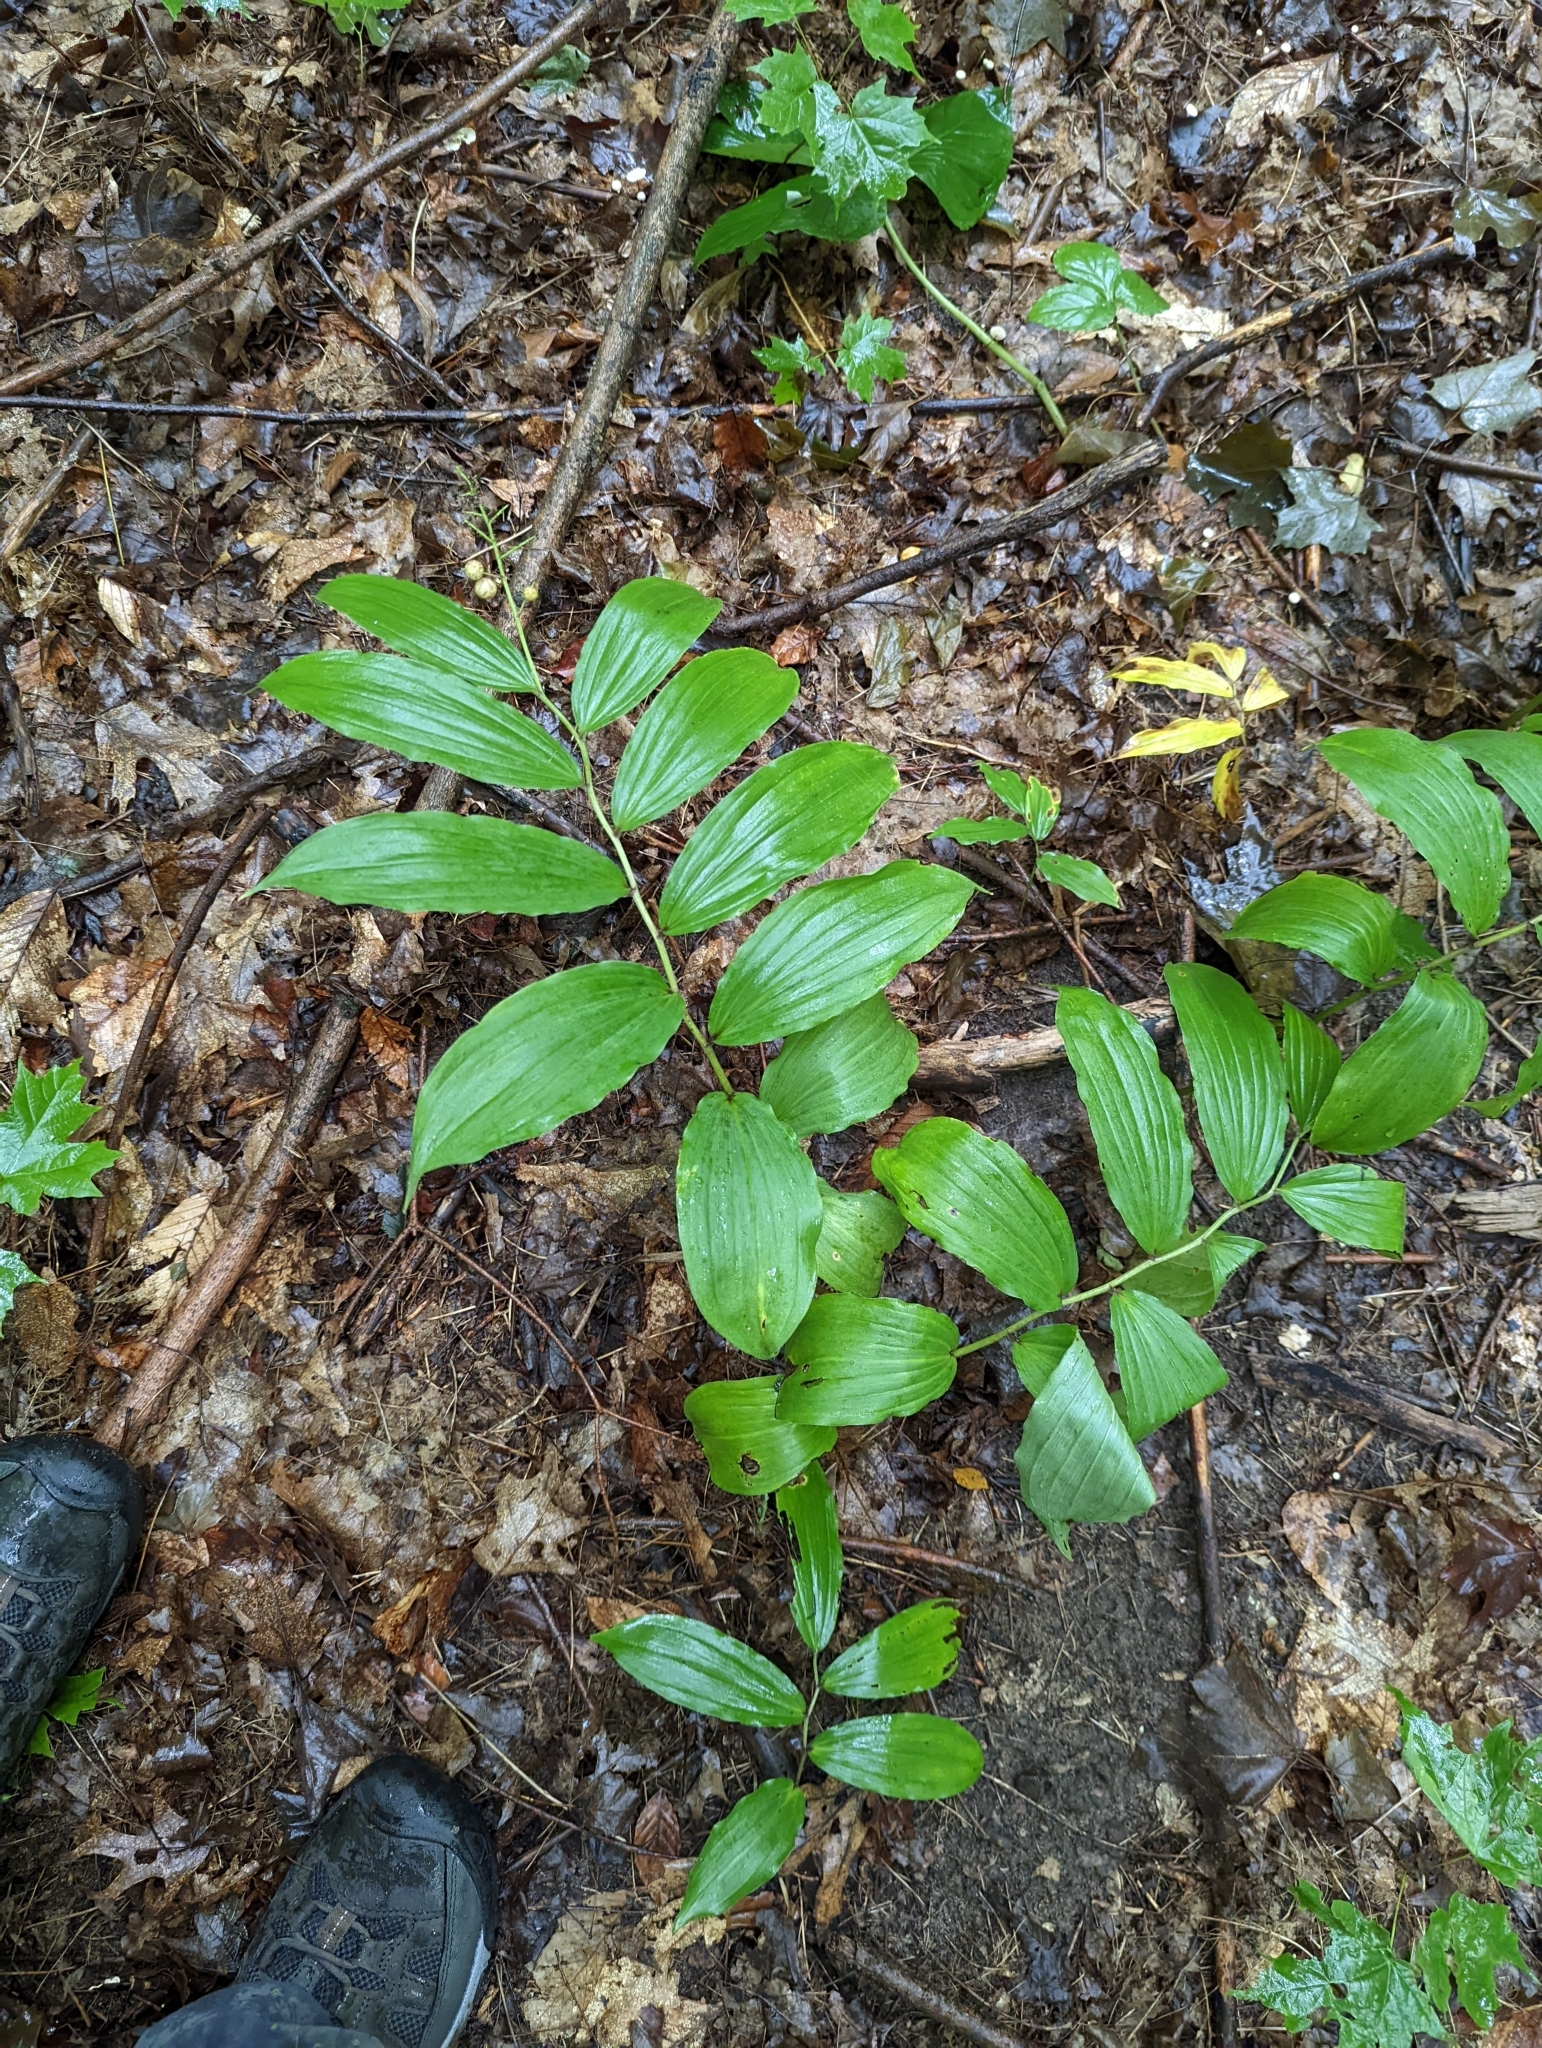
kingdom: Plantae
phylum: Tracheophyta
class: Liliopsida
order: Asparagales
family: Asparagaceae
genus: Maianthemum
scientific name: Maianthemum racemosum
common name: False spikenard
